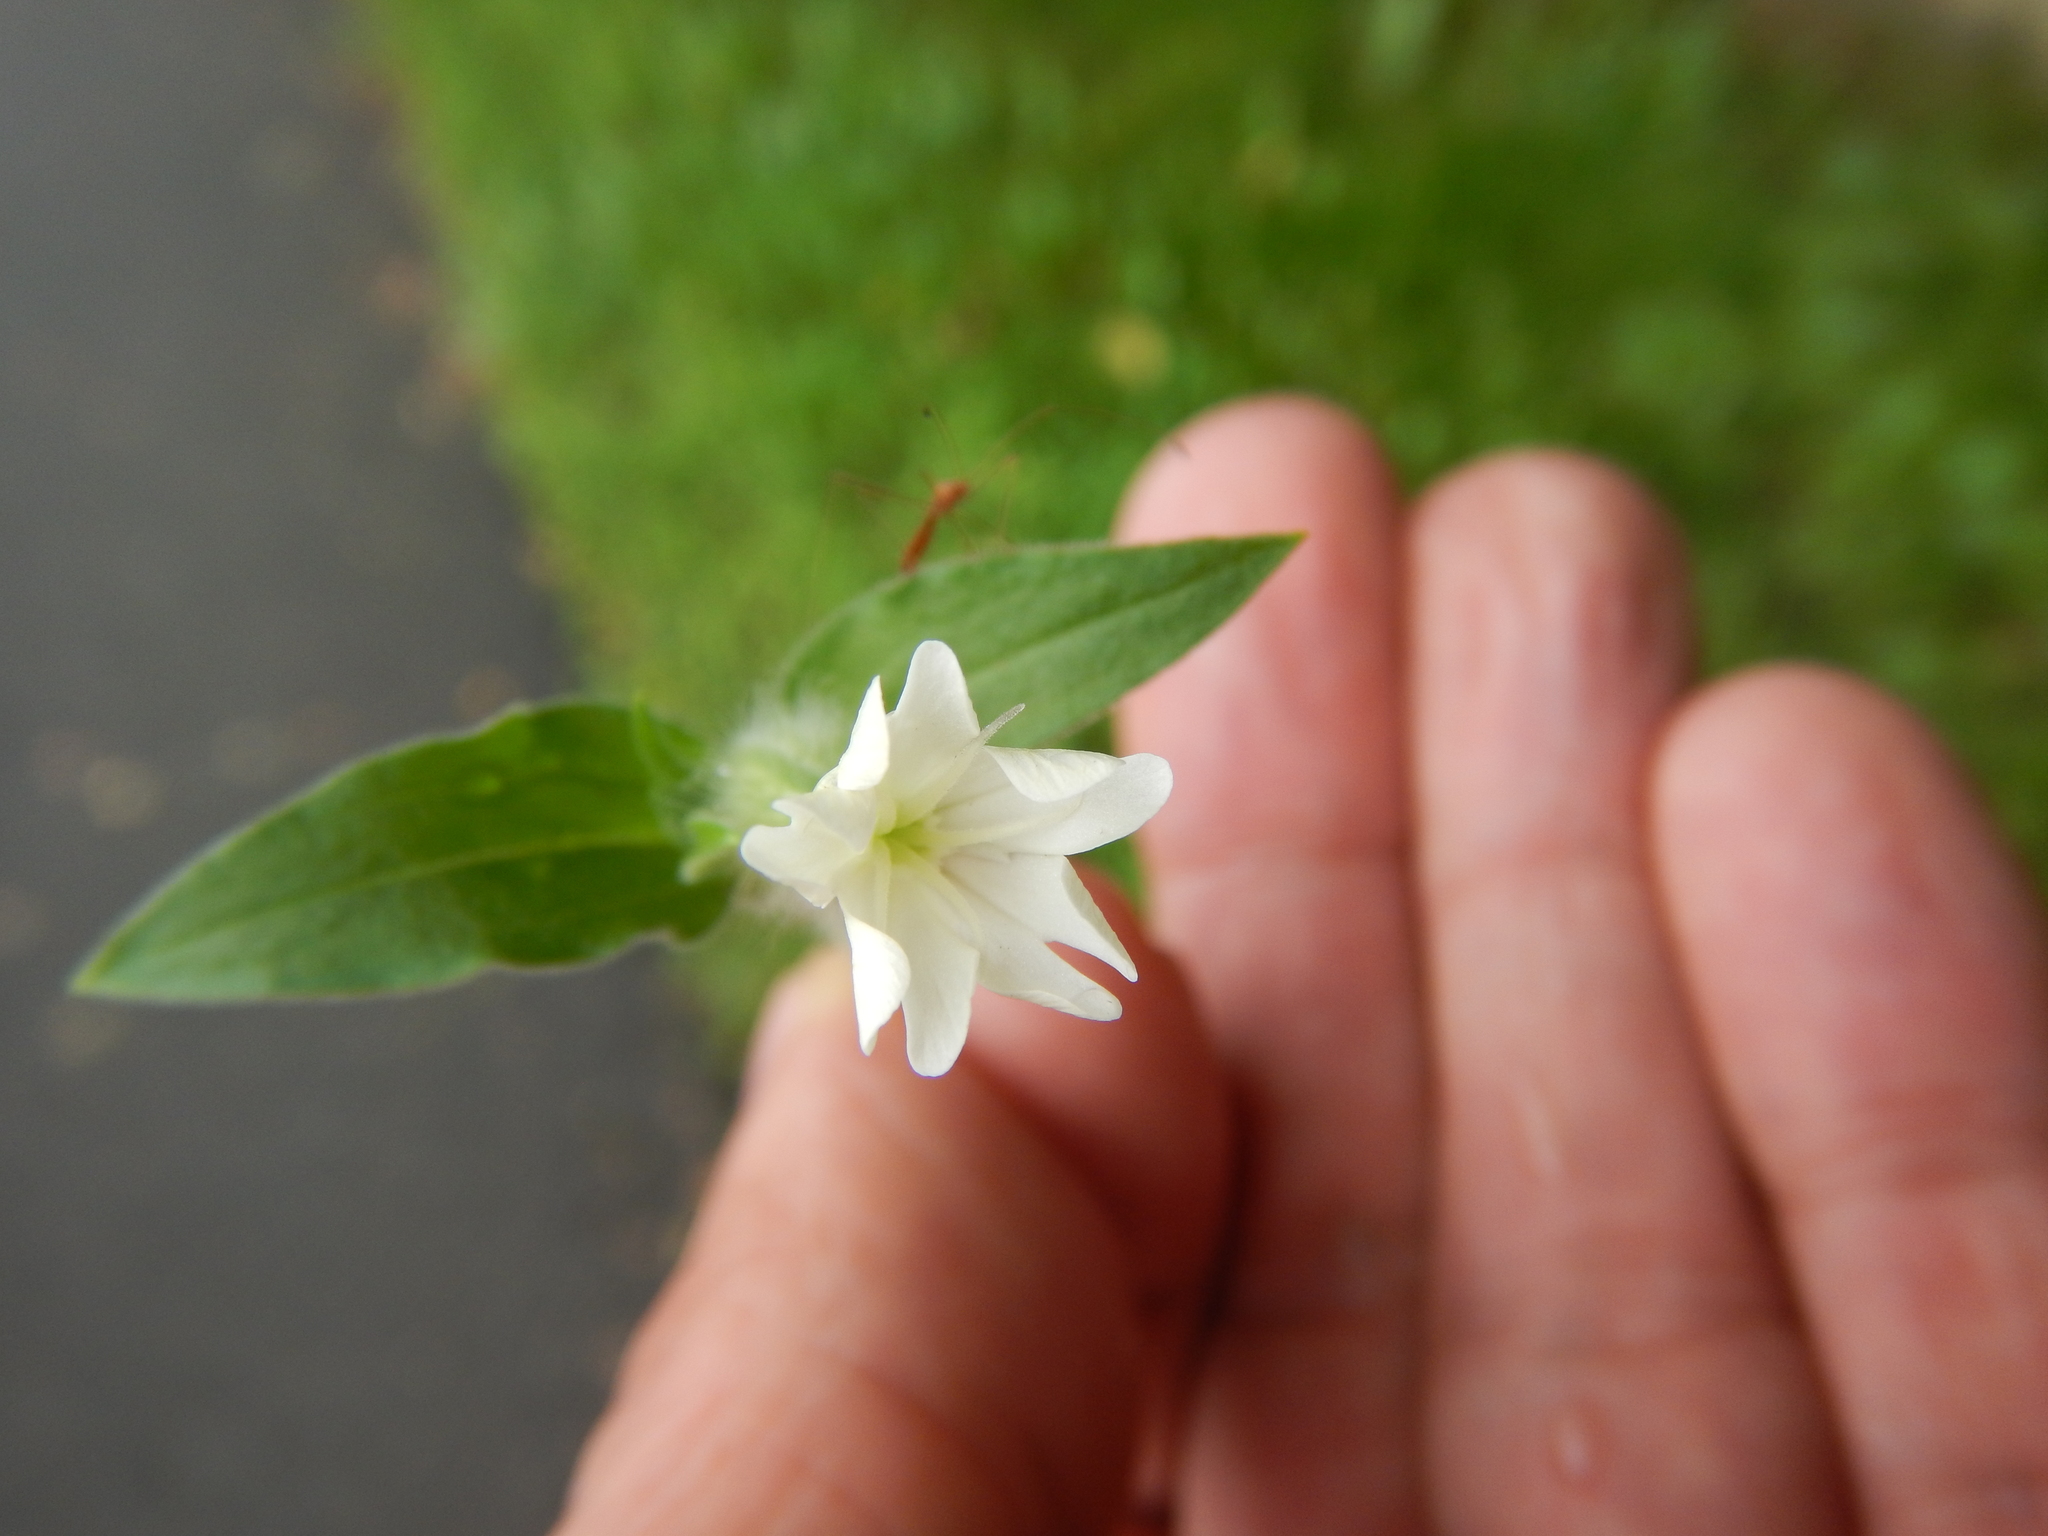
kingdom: Plantae
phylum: Tracheophyta
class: Magnoliopsida
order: Caryophyllales
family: Caryophyllaceae
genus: Silene
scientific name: Silene latifolia
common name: White campion
